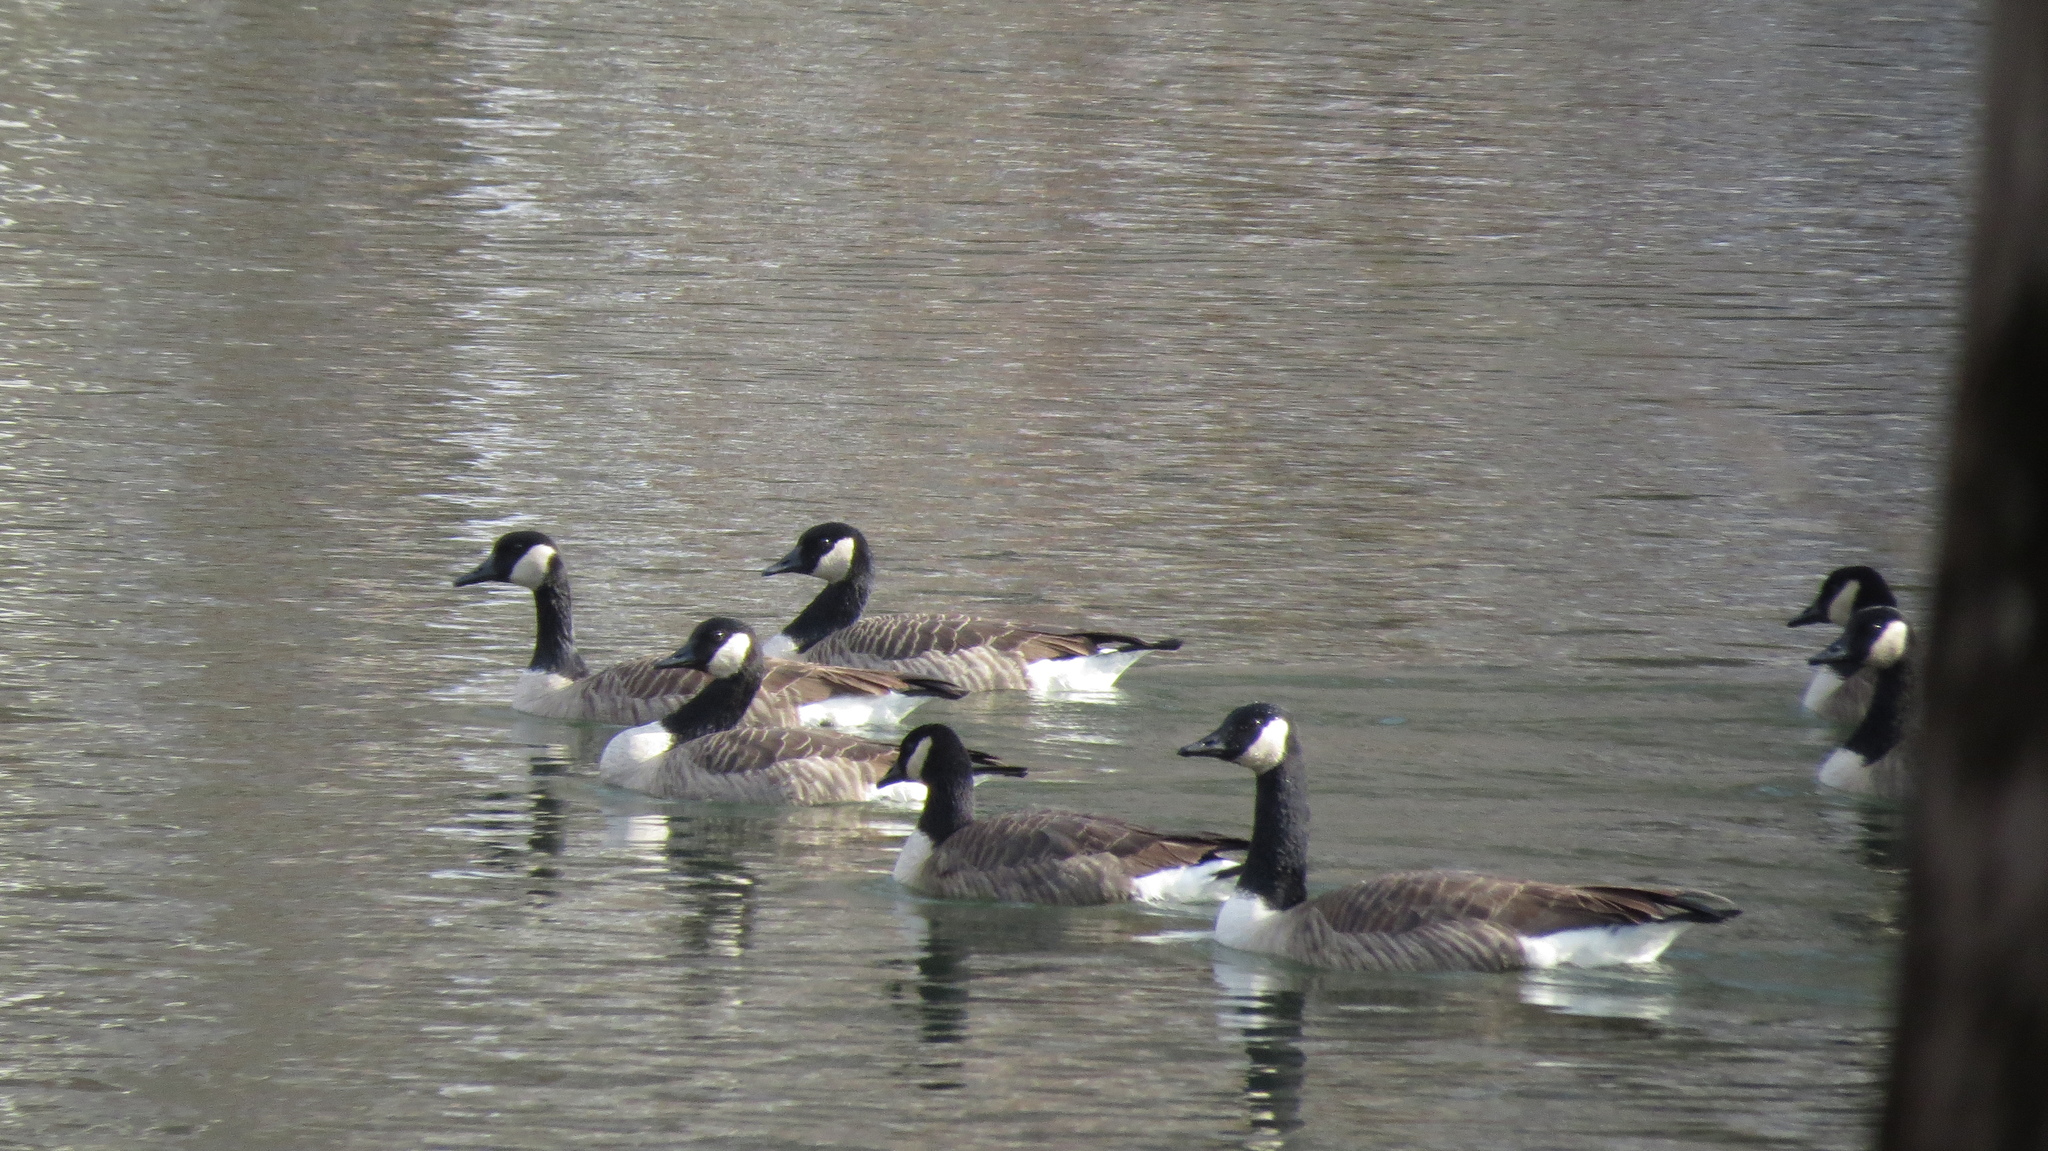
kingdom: Animalia
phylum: Chordata
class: Aves
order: Anseriformes
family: Anatidae
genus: Branta
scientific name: Branta canadensis
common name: Canada goose
